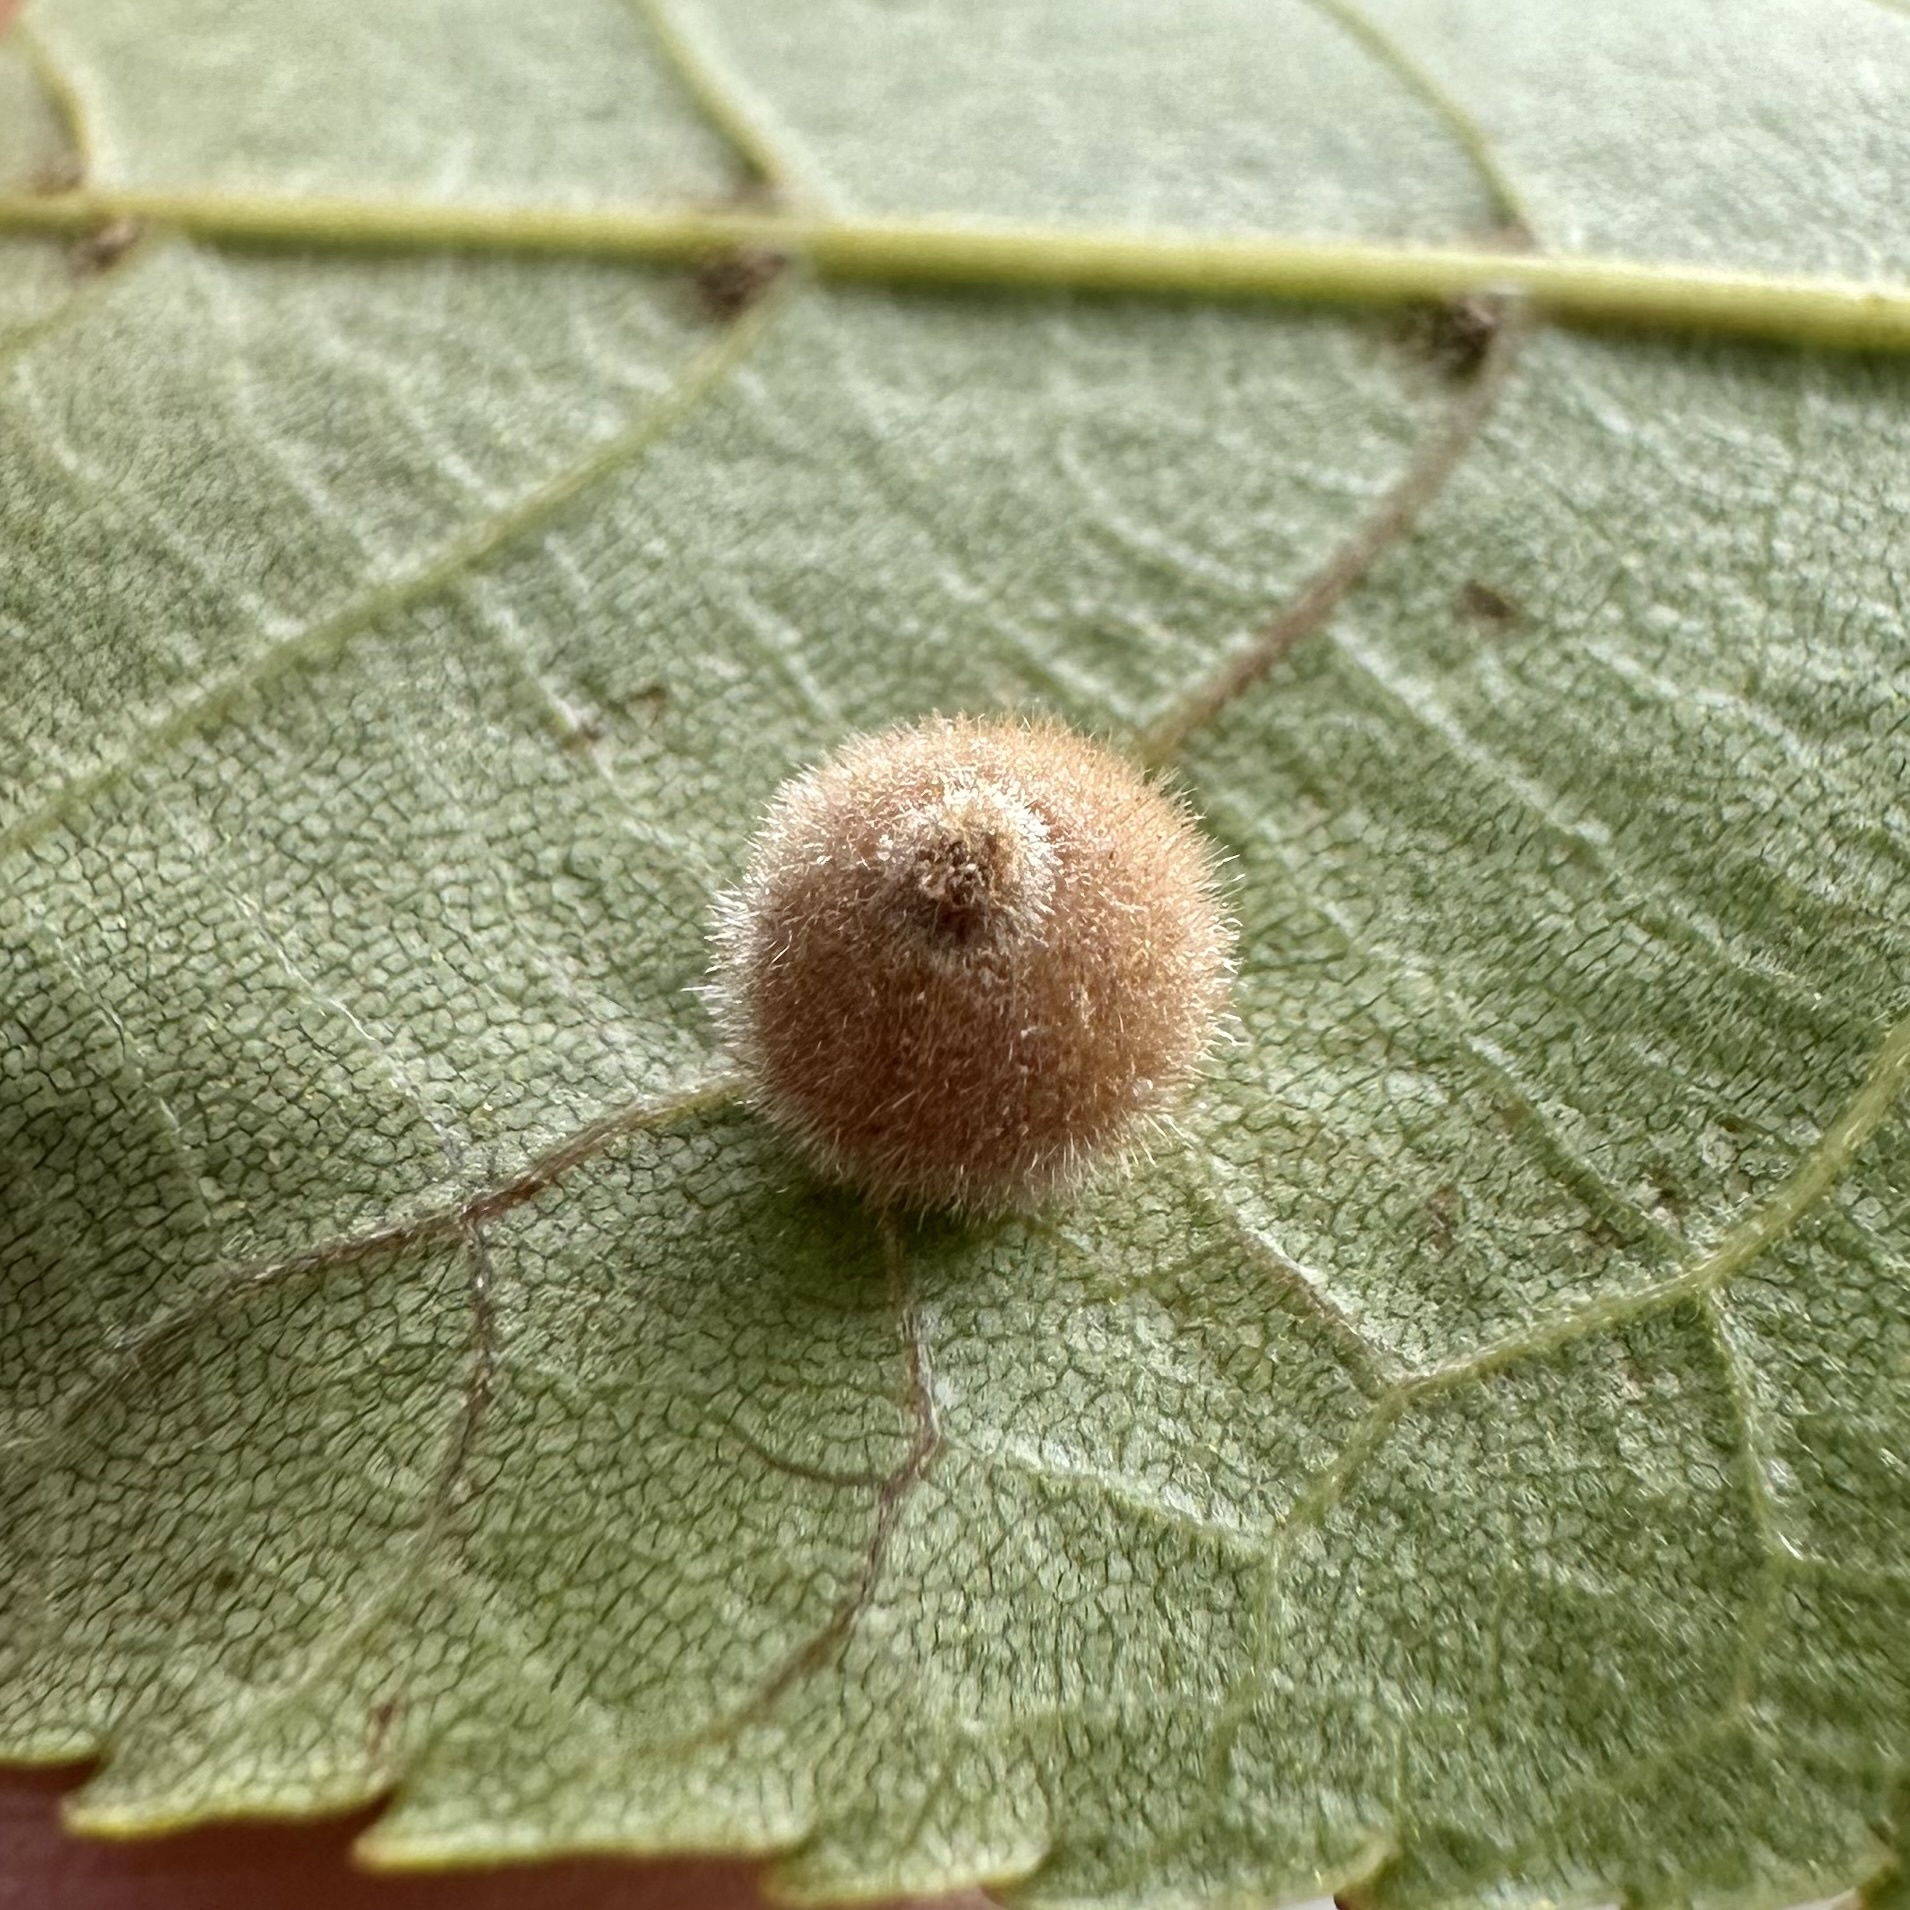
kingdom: Animalia
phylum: Arthropoda
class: Insecta
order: Diptera
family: Cecidomyiidae
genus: Caryomyia
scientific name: Caryomyia hirtiglobus
